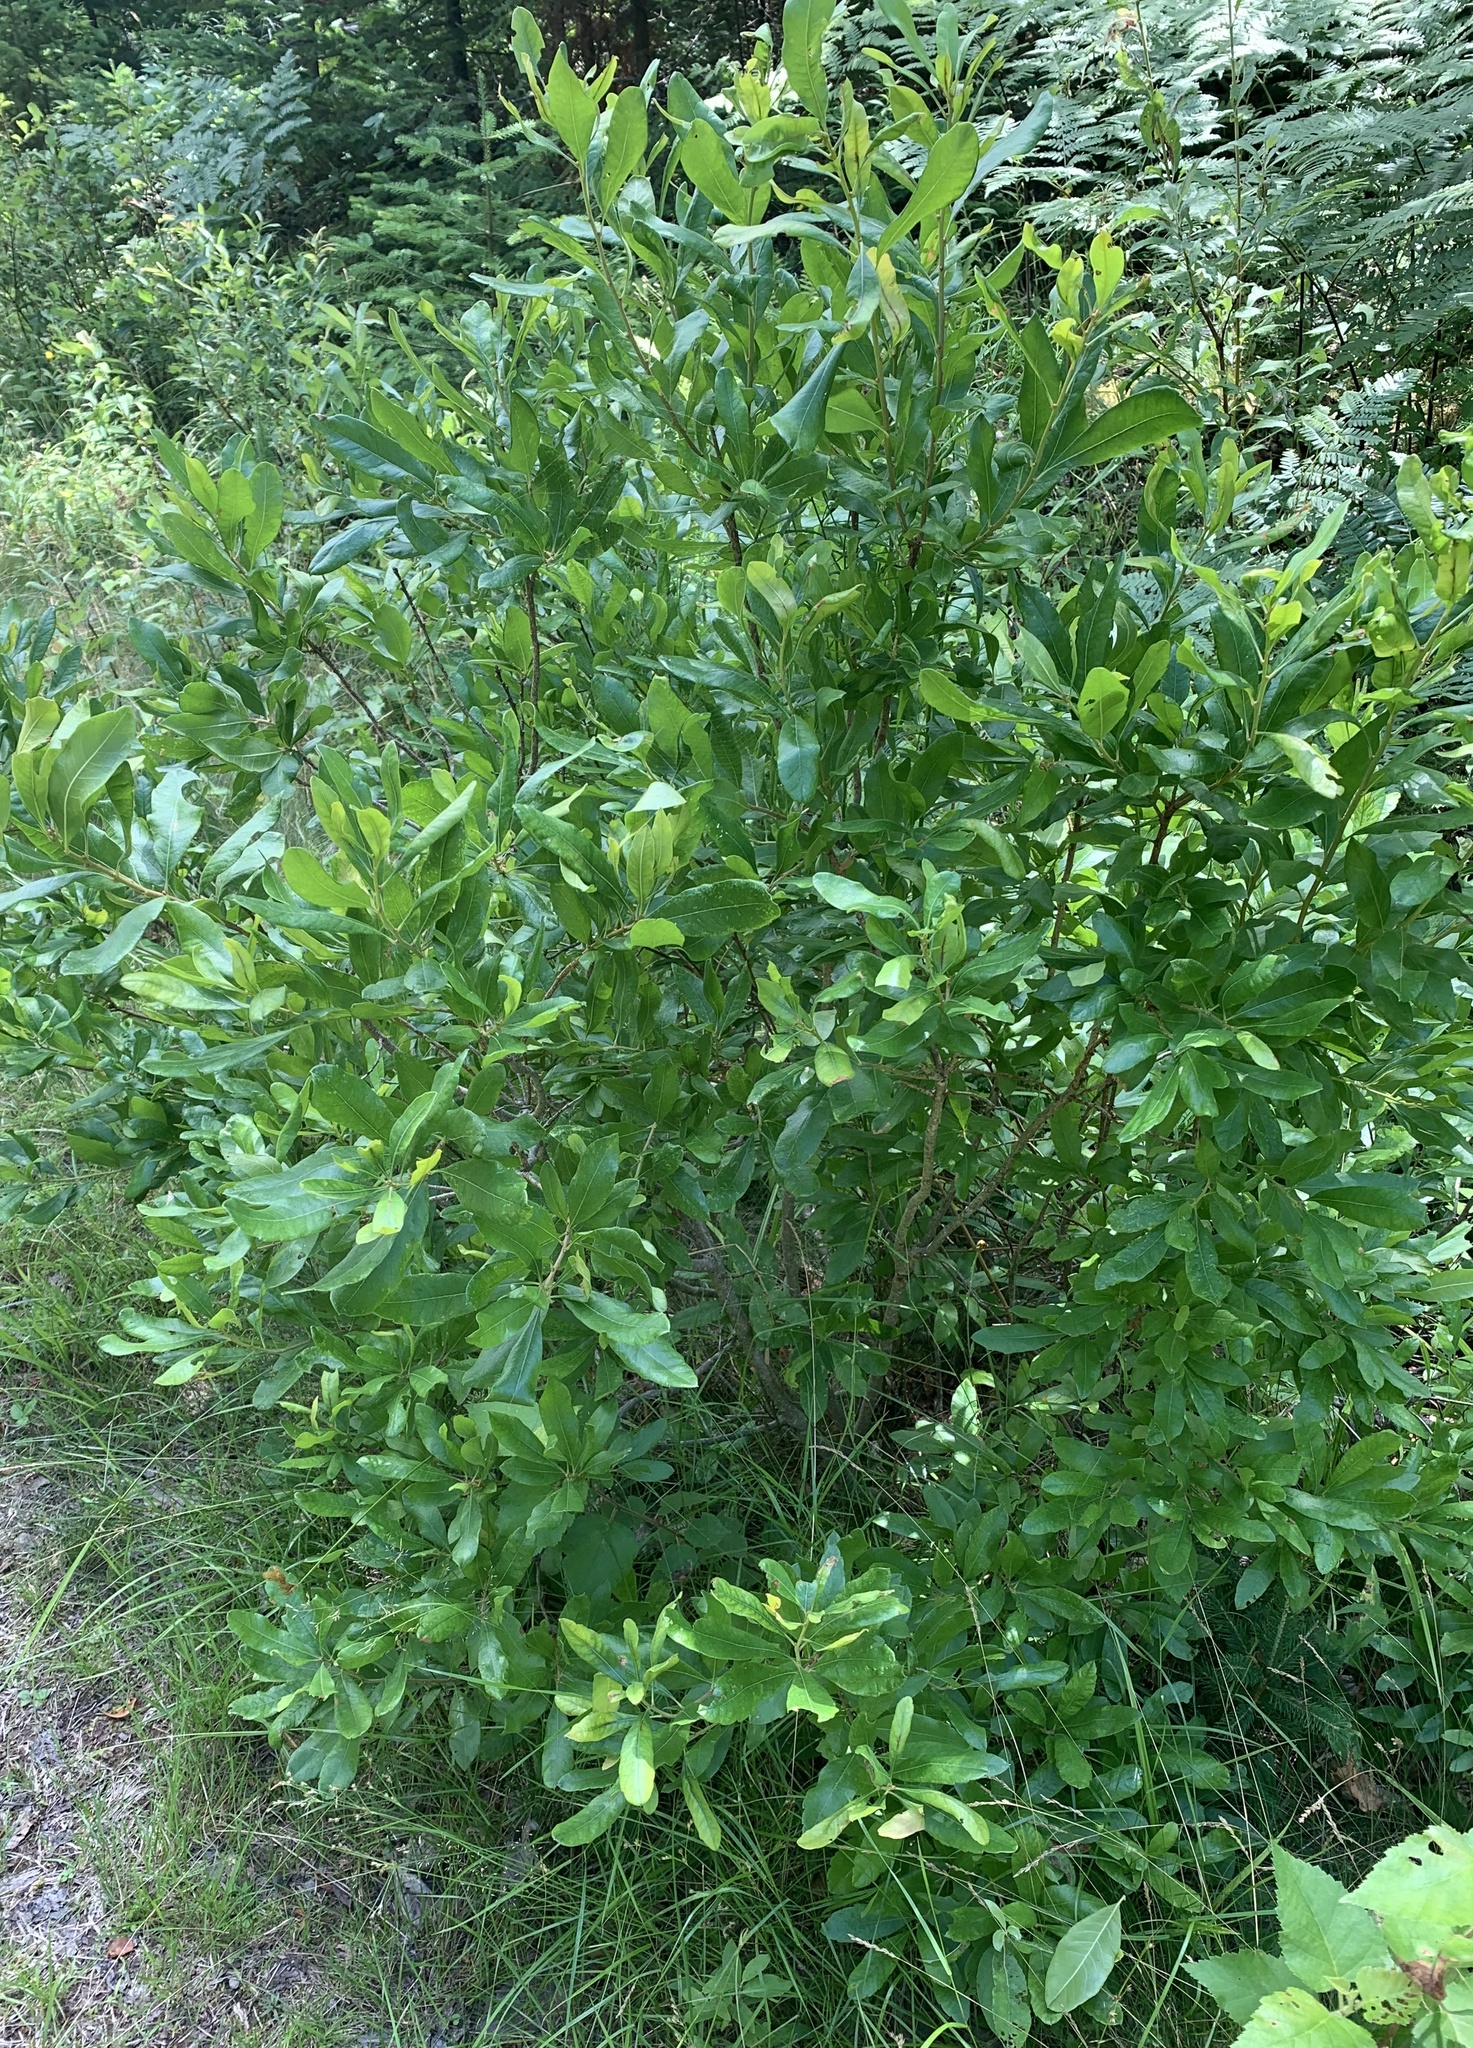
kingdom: Plantae
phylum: Tracheophyta
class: Magnoliopsida
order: Fagales
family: Myricaceae
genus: Morella
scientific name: Morella pensylvanica
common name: Northern bayberry
